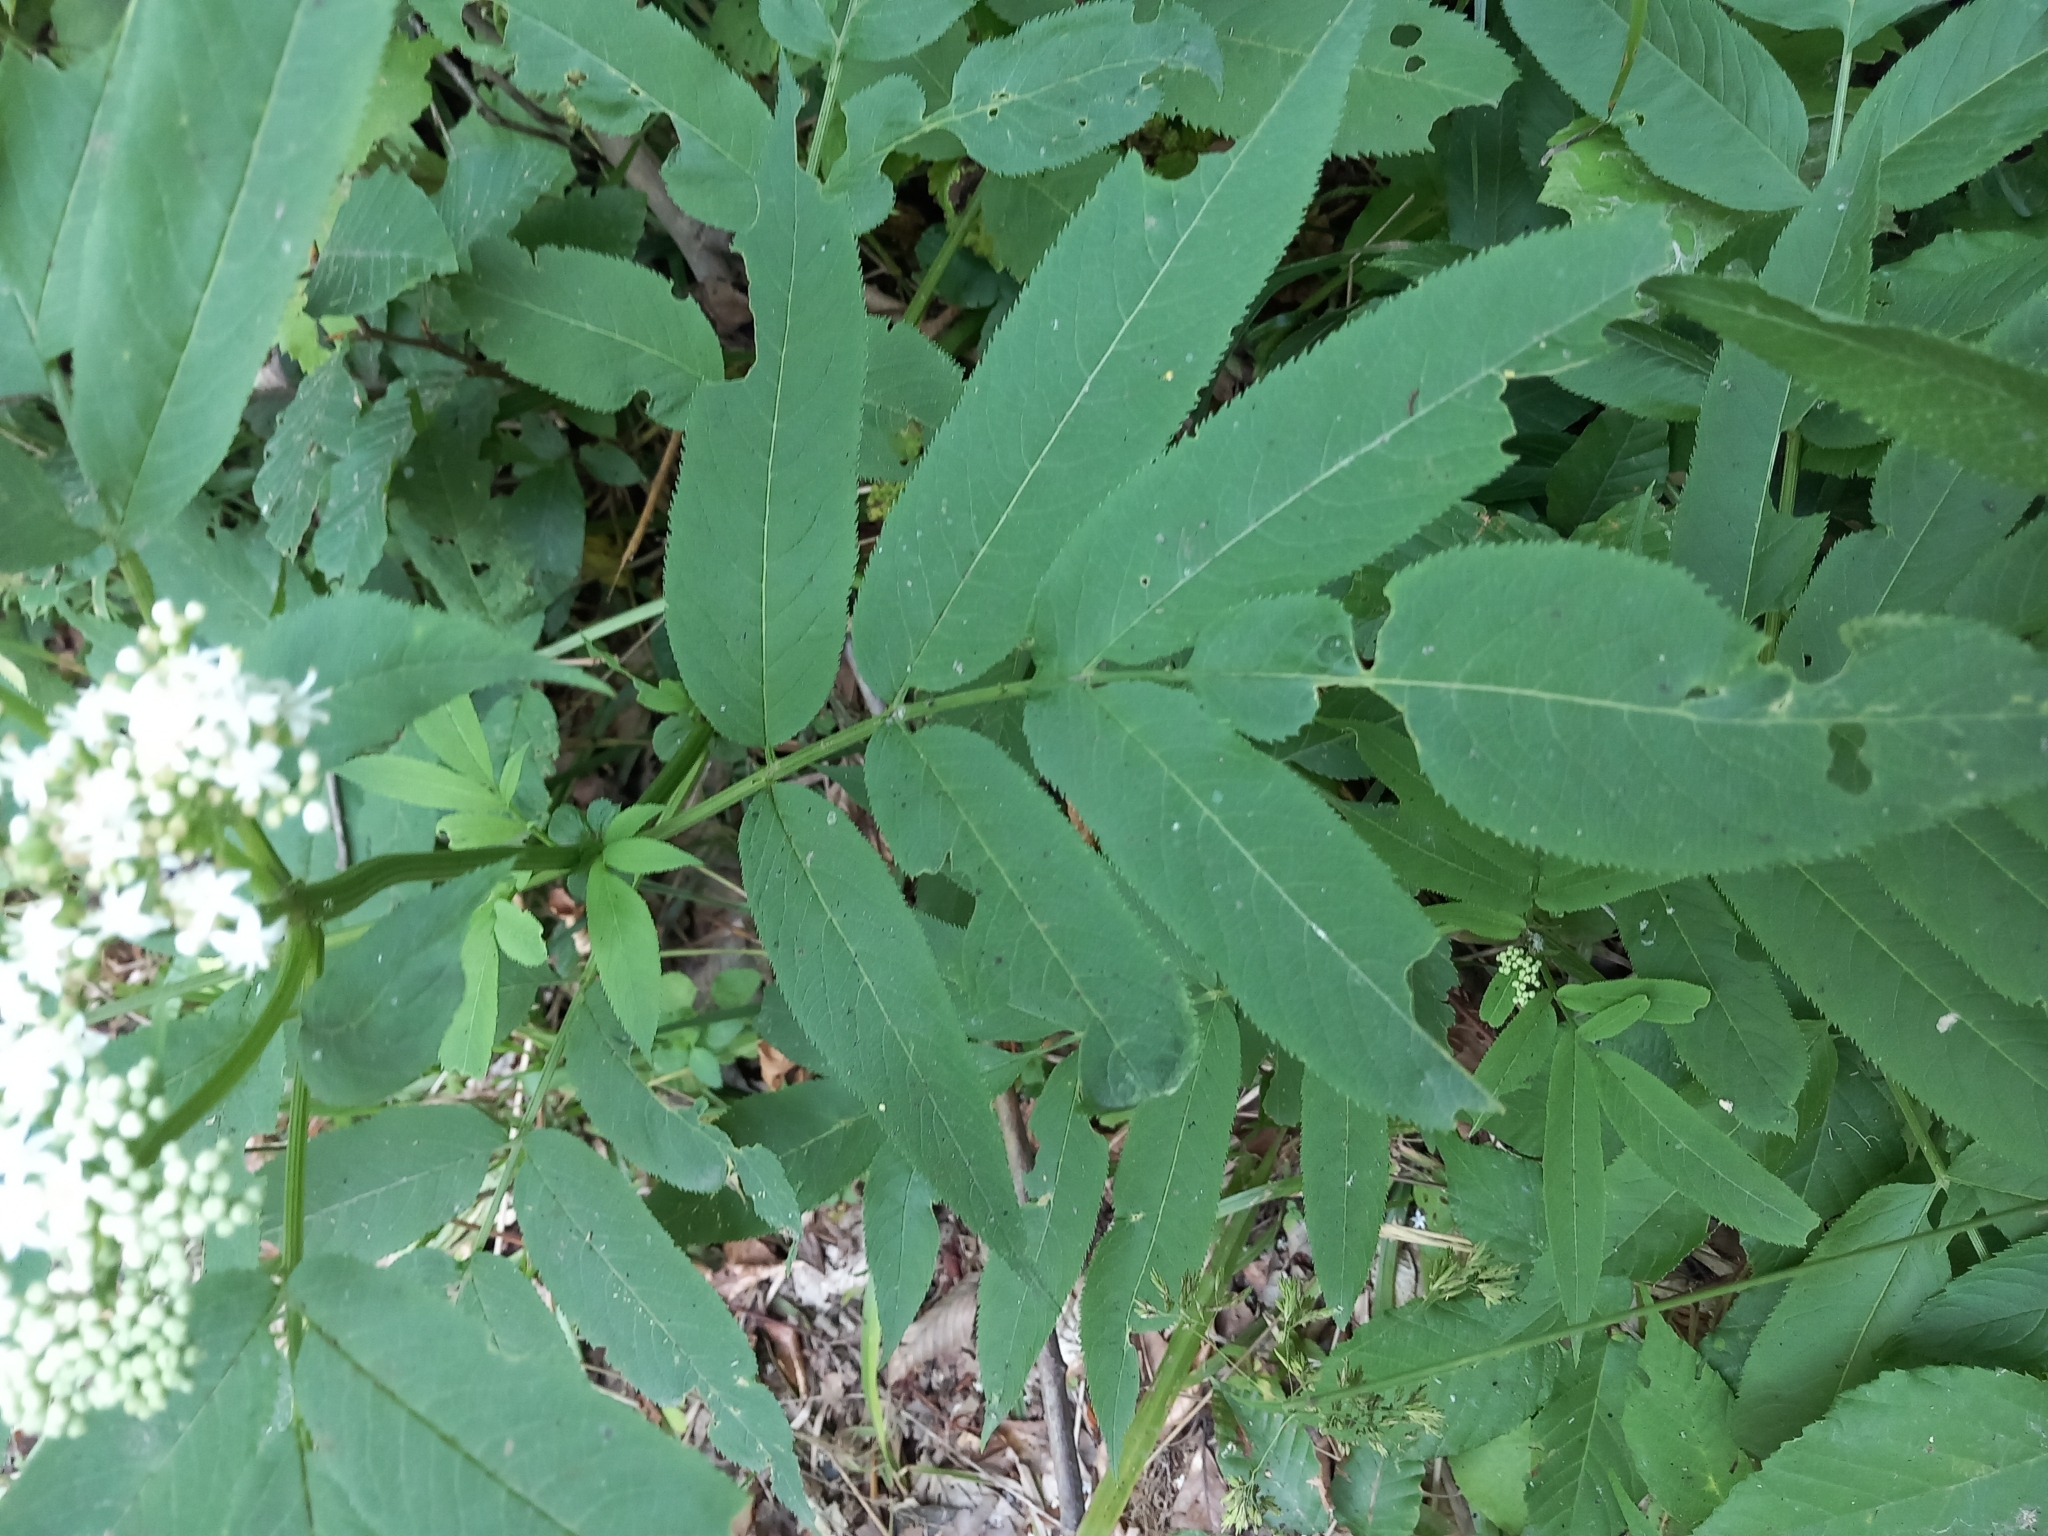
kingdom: Plantae
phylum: Tracheophyta
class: Magnoliopsida
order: Dipsacales
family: Viburnaceae
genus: Sambucus
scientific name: Sambucus ebulus
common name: Dwarf elder
